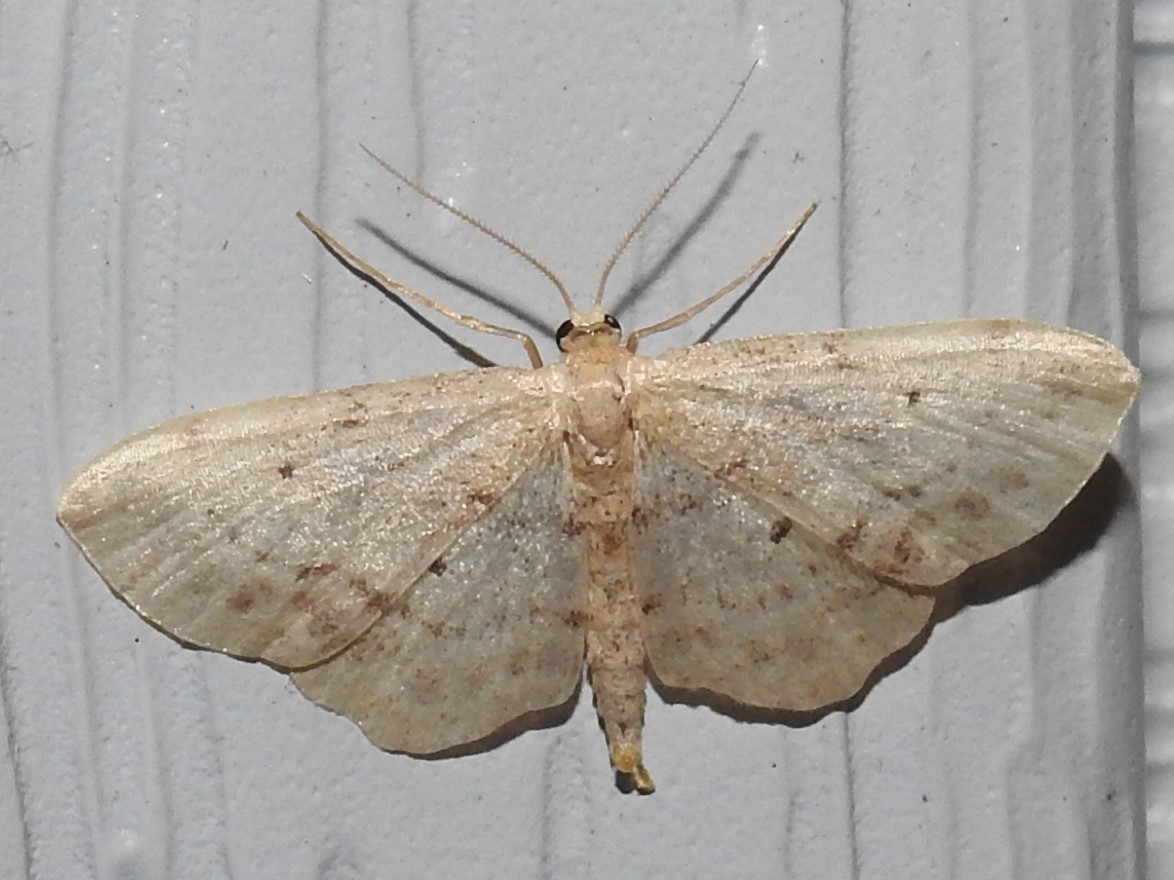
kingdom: Animalia
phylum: Arthropoda
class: Insecta
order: Lepidoptera
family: Geometridae
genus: Idaea
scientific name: Idaea dimidiata
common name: Single-dotted wave
